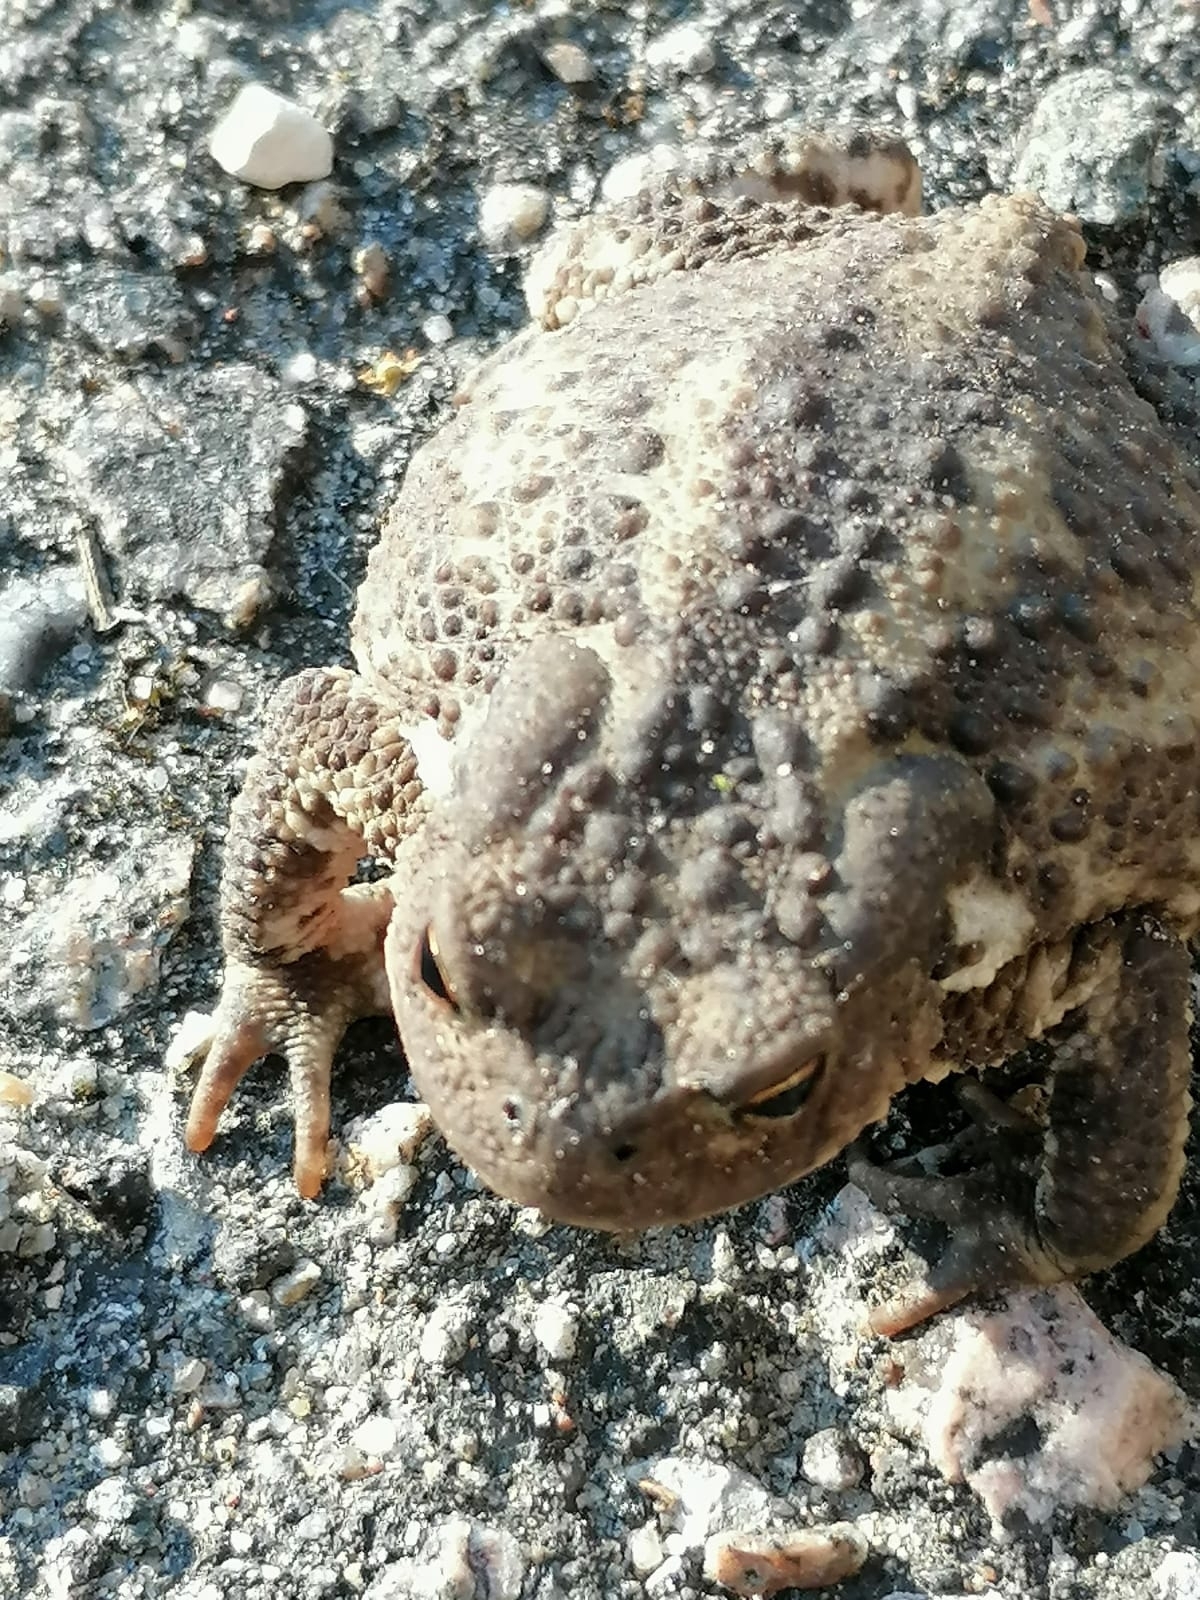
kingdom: Animalia
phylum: Chordata
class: Amphibia
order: Anura
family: Bufonidae
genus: Bufo
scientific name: Bufo bufo
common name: Common toad
